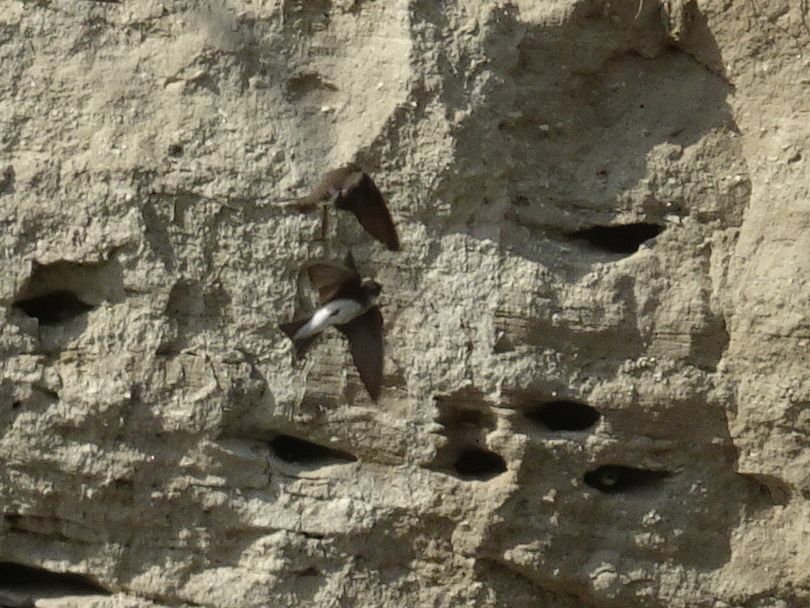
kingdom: Animalia
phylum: Chordata
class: Aves
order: Passeriformes
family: Hirundinidae
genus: Riparia
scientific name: Riparia riparia
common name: Sand martin
